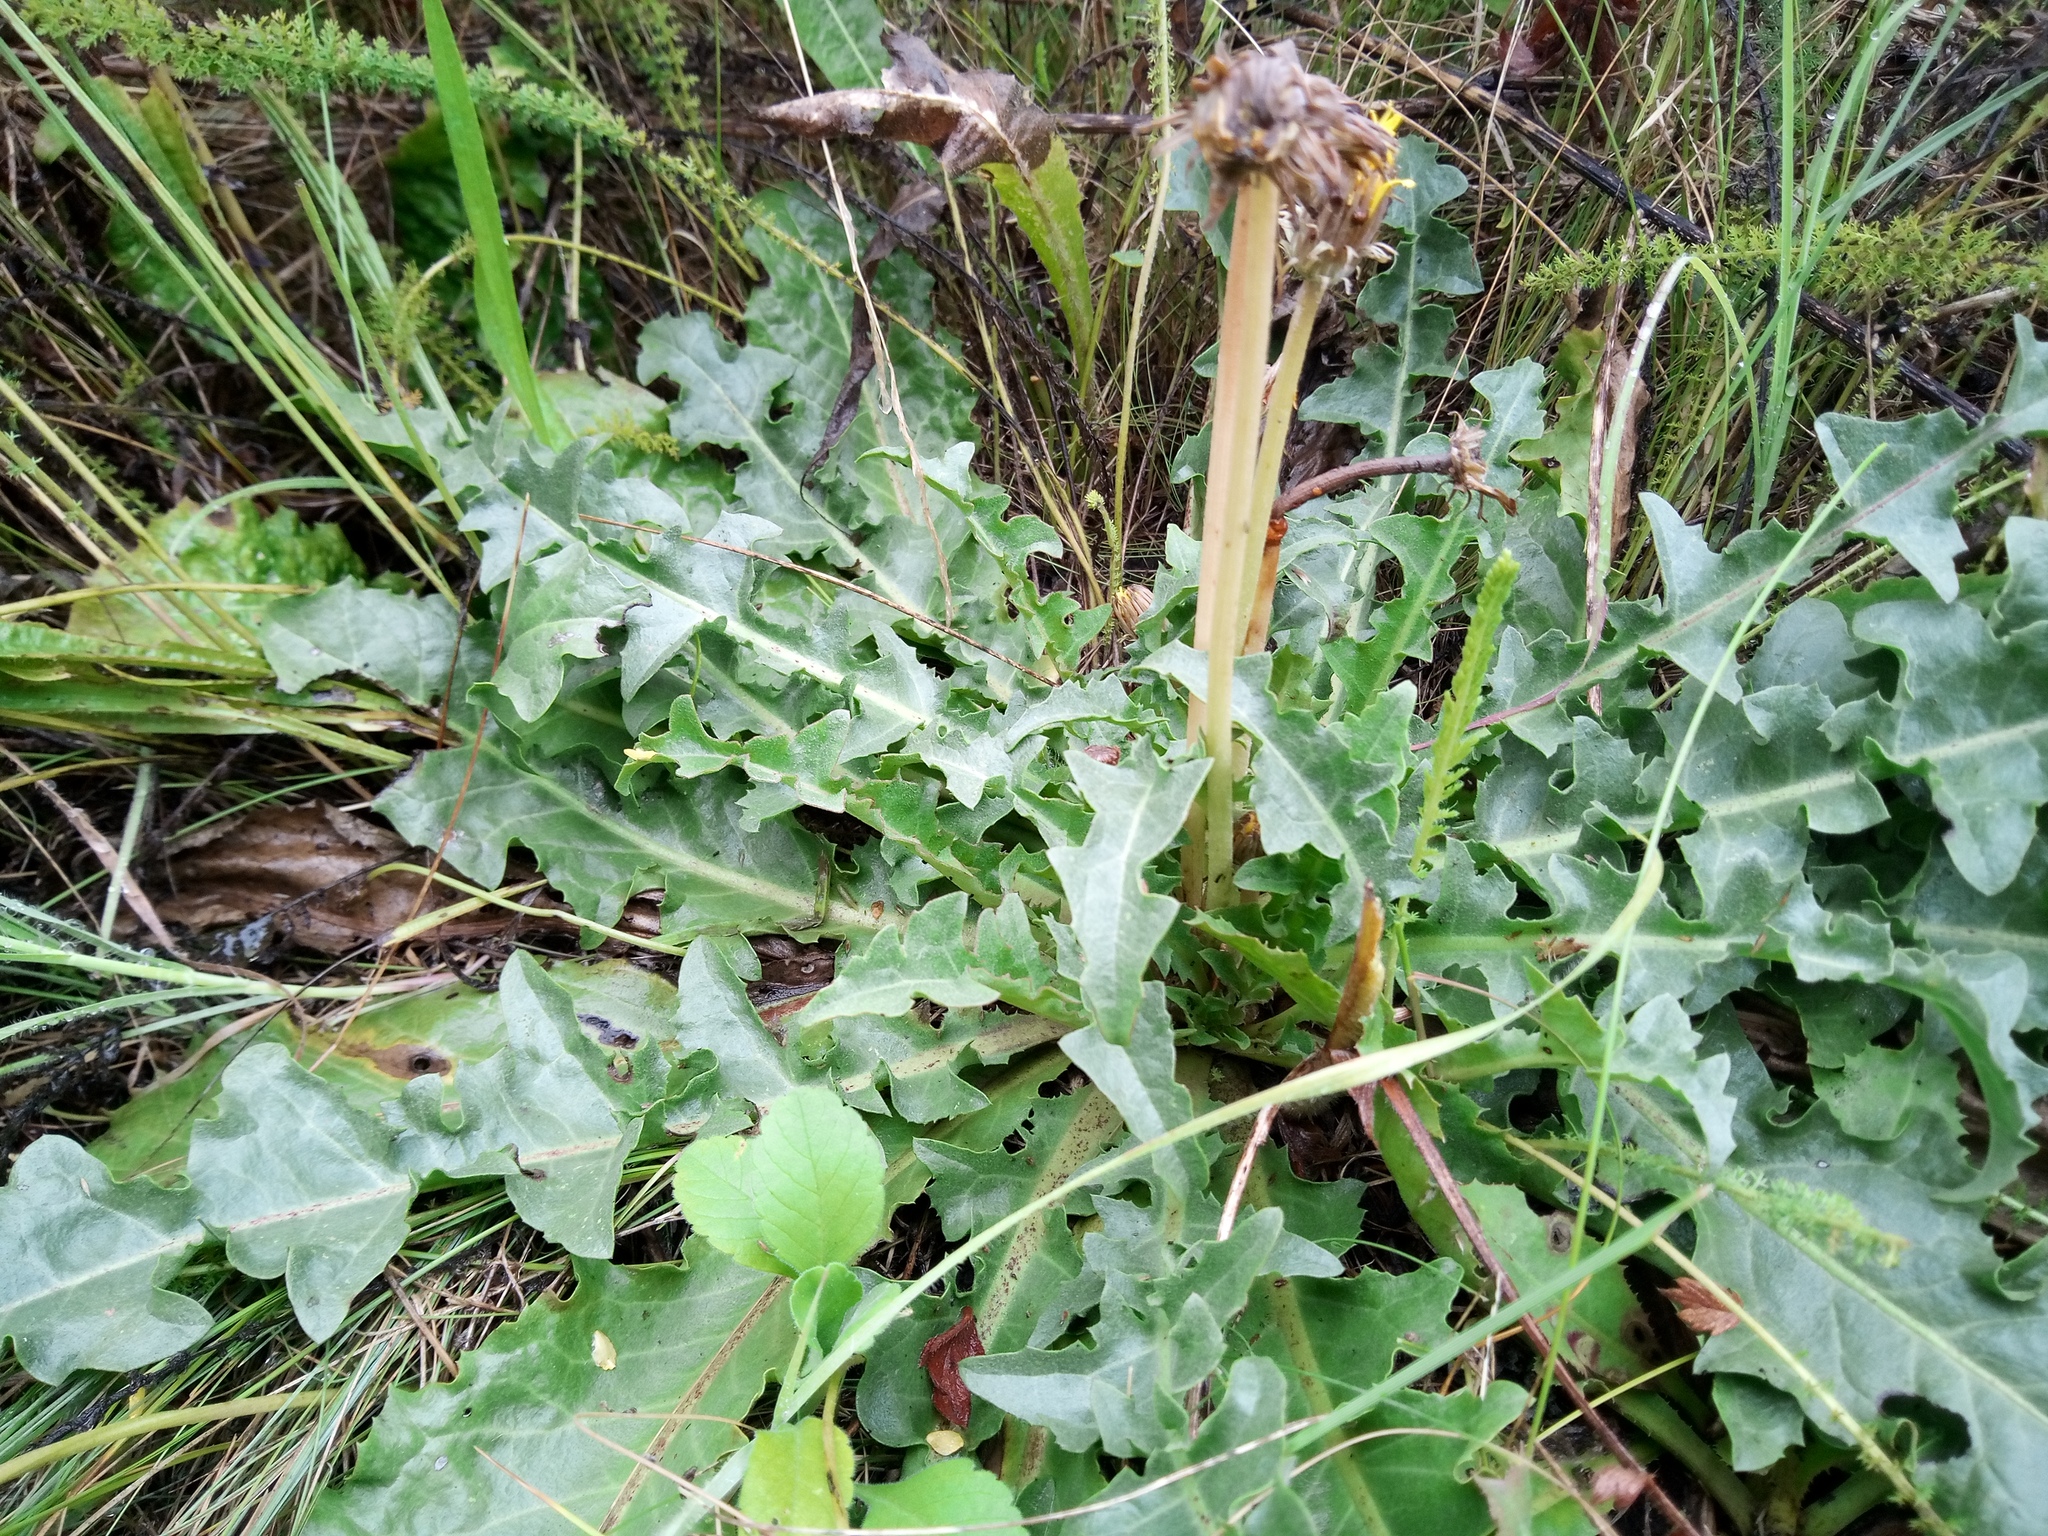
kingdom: Plantae
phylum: Tracheophyta
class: Magnoliopsida
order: Asterales
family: Asteraceae
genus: Taraxacum
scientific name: Taraxacum serotinum
